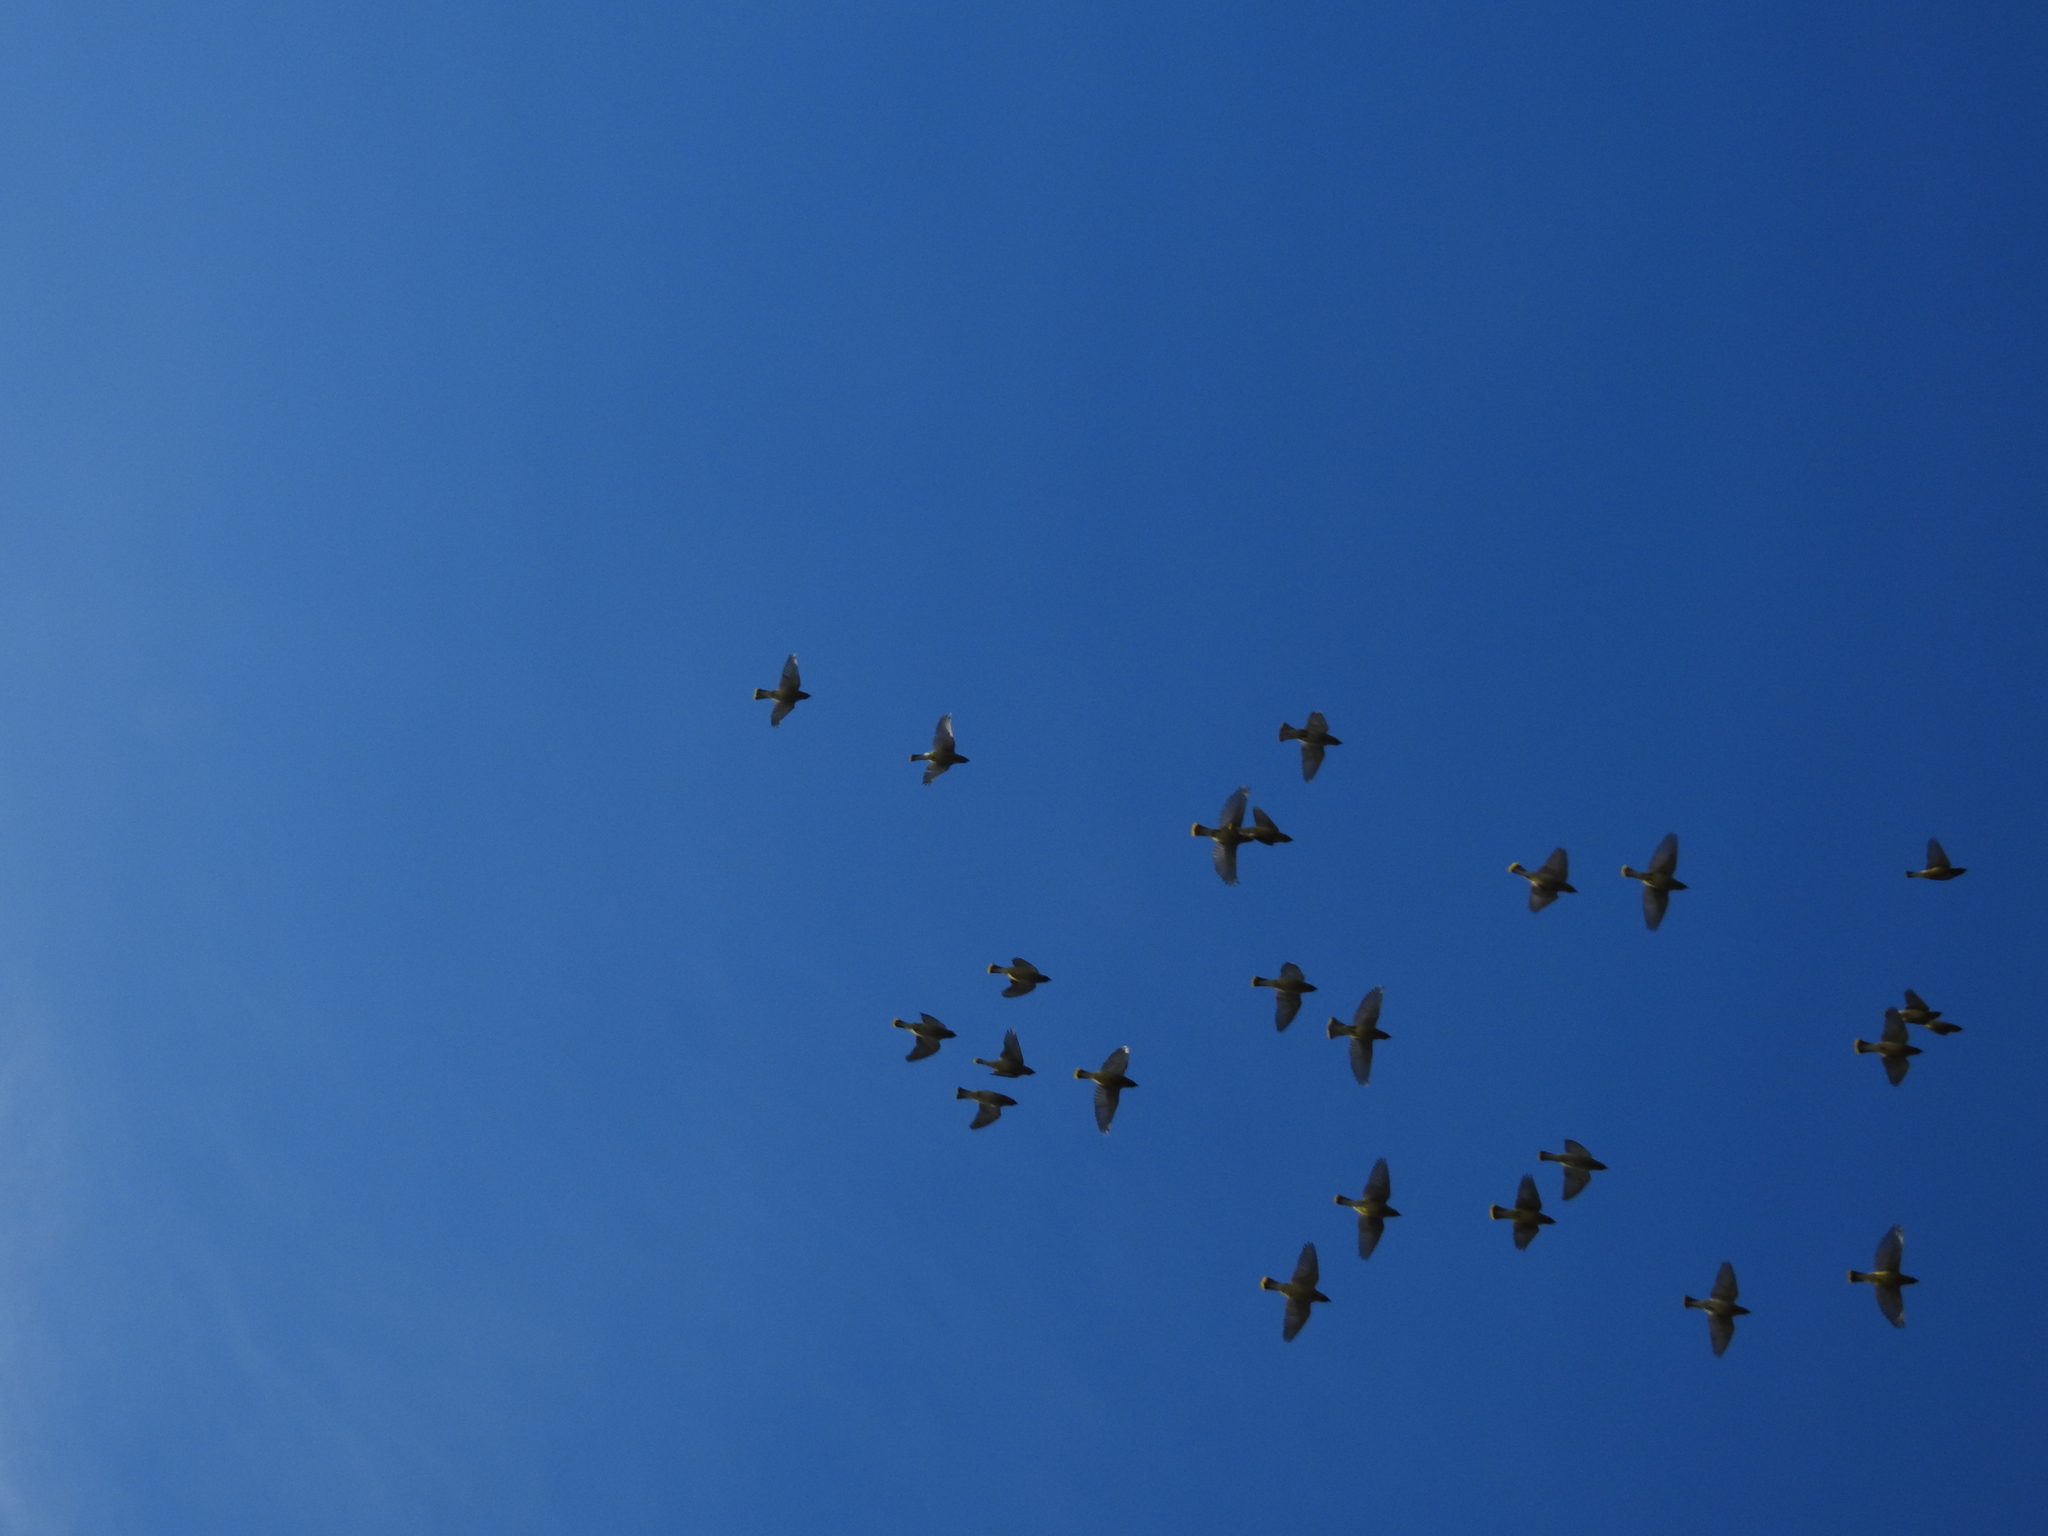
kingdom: Animalia
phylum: Chordata
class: Aves
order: Passeriformes
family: Bombycillidae
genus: Bombycilla
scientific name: Bombycilla cedrorum
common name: Cedar waxwing
